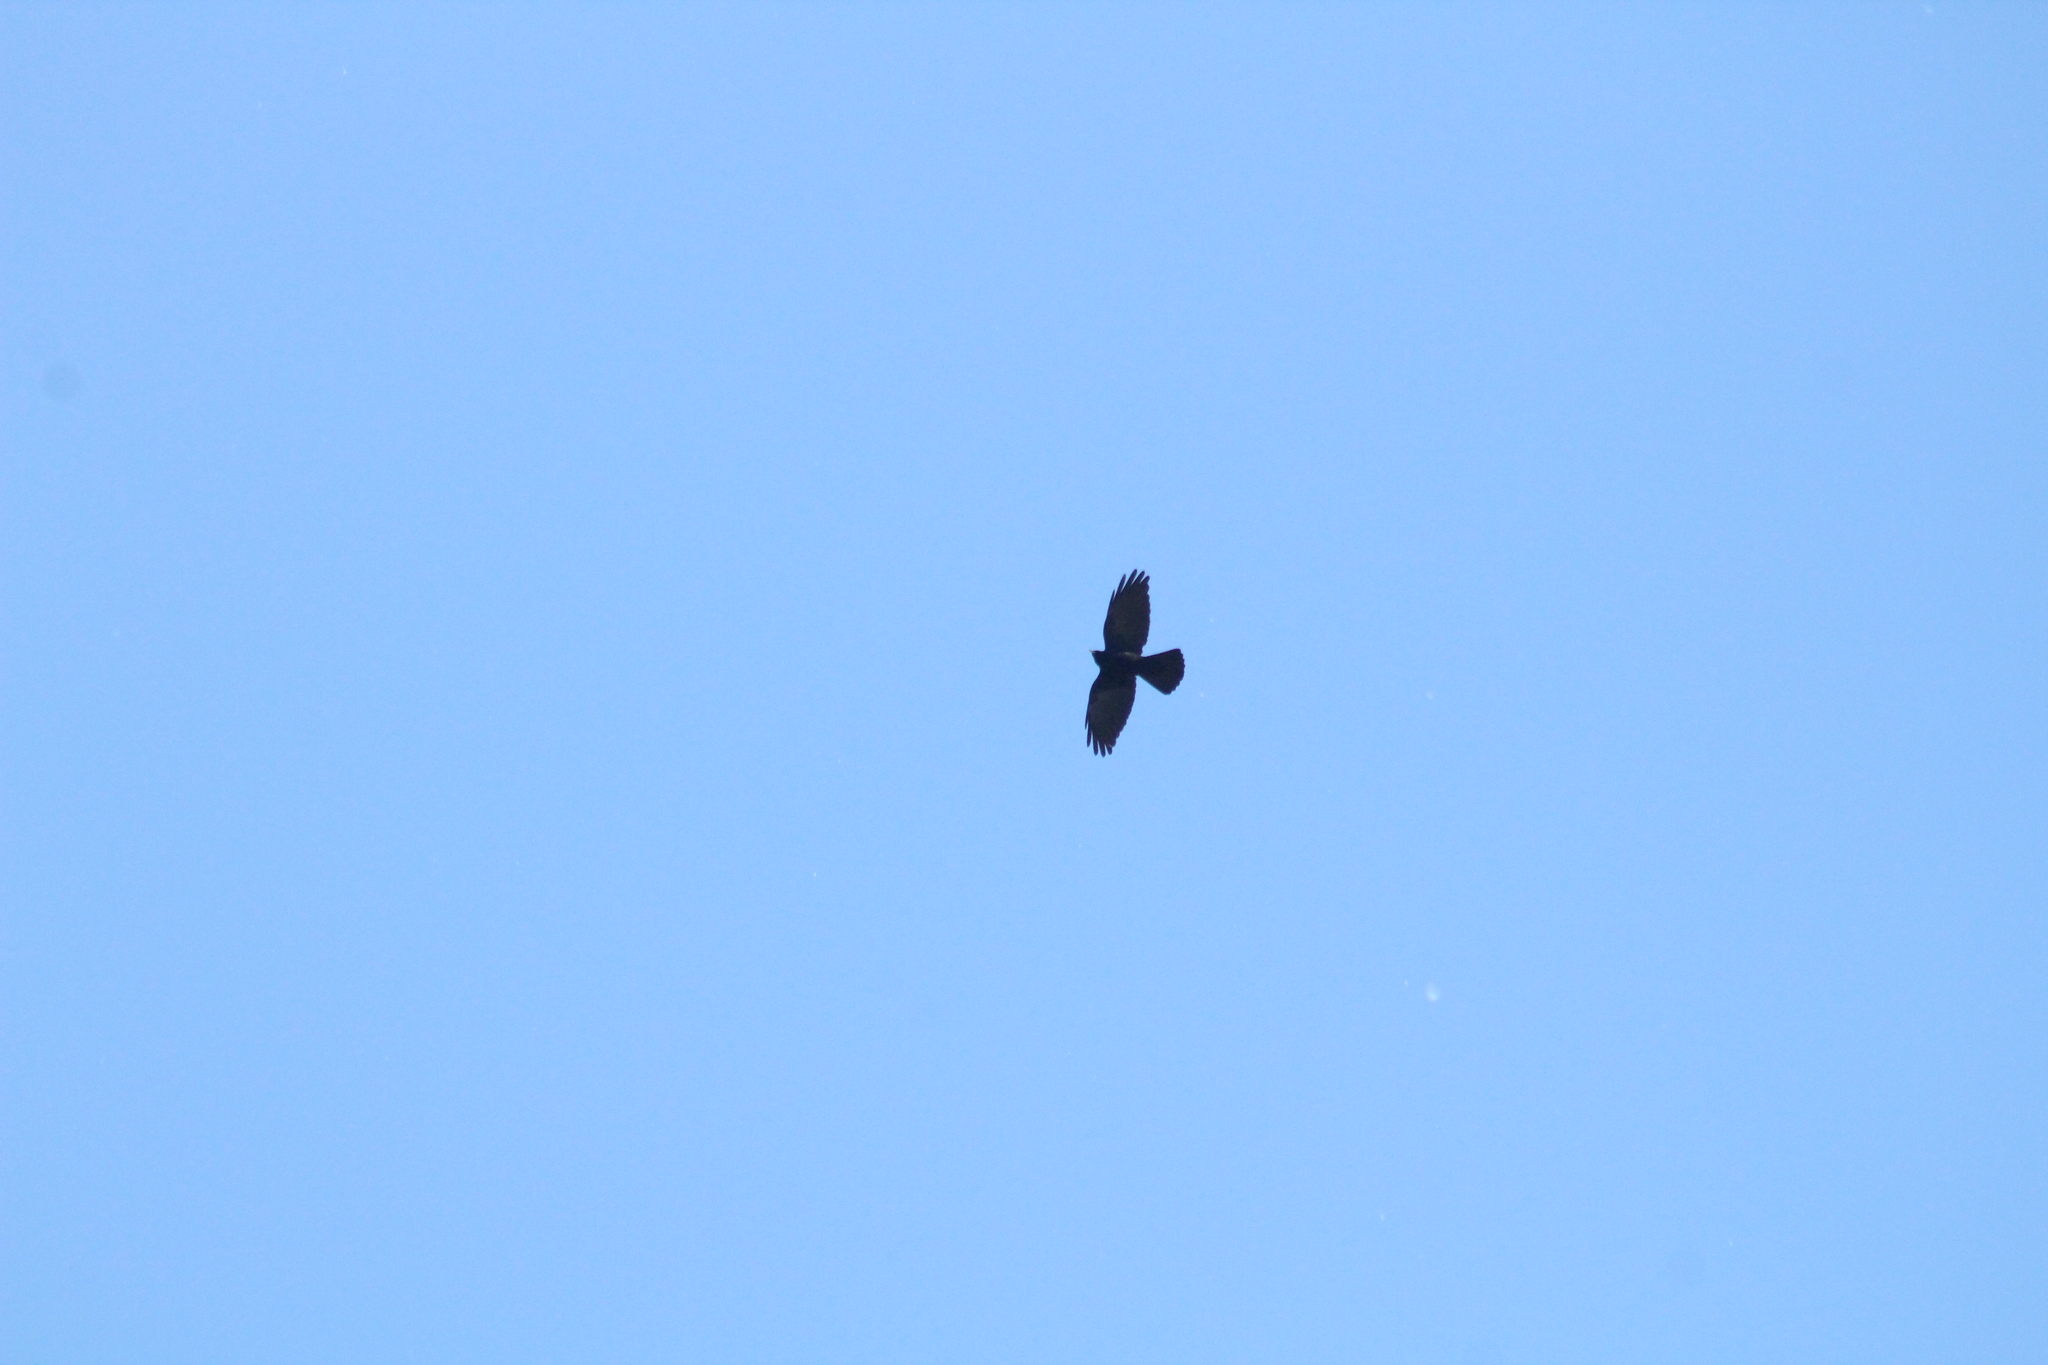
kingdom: Animalia
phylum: Chordata
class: Aves
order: Passeriformes
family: Corvidae
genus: Pyrrhocorax
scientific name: Pyrrhocorax graculus
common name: Alpine chough
